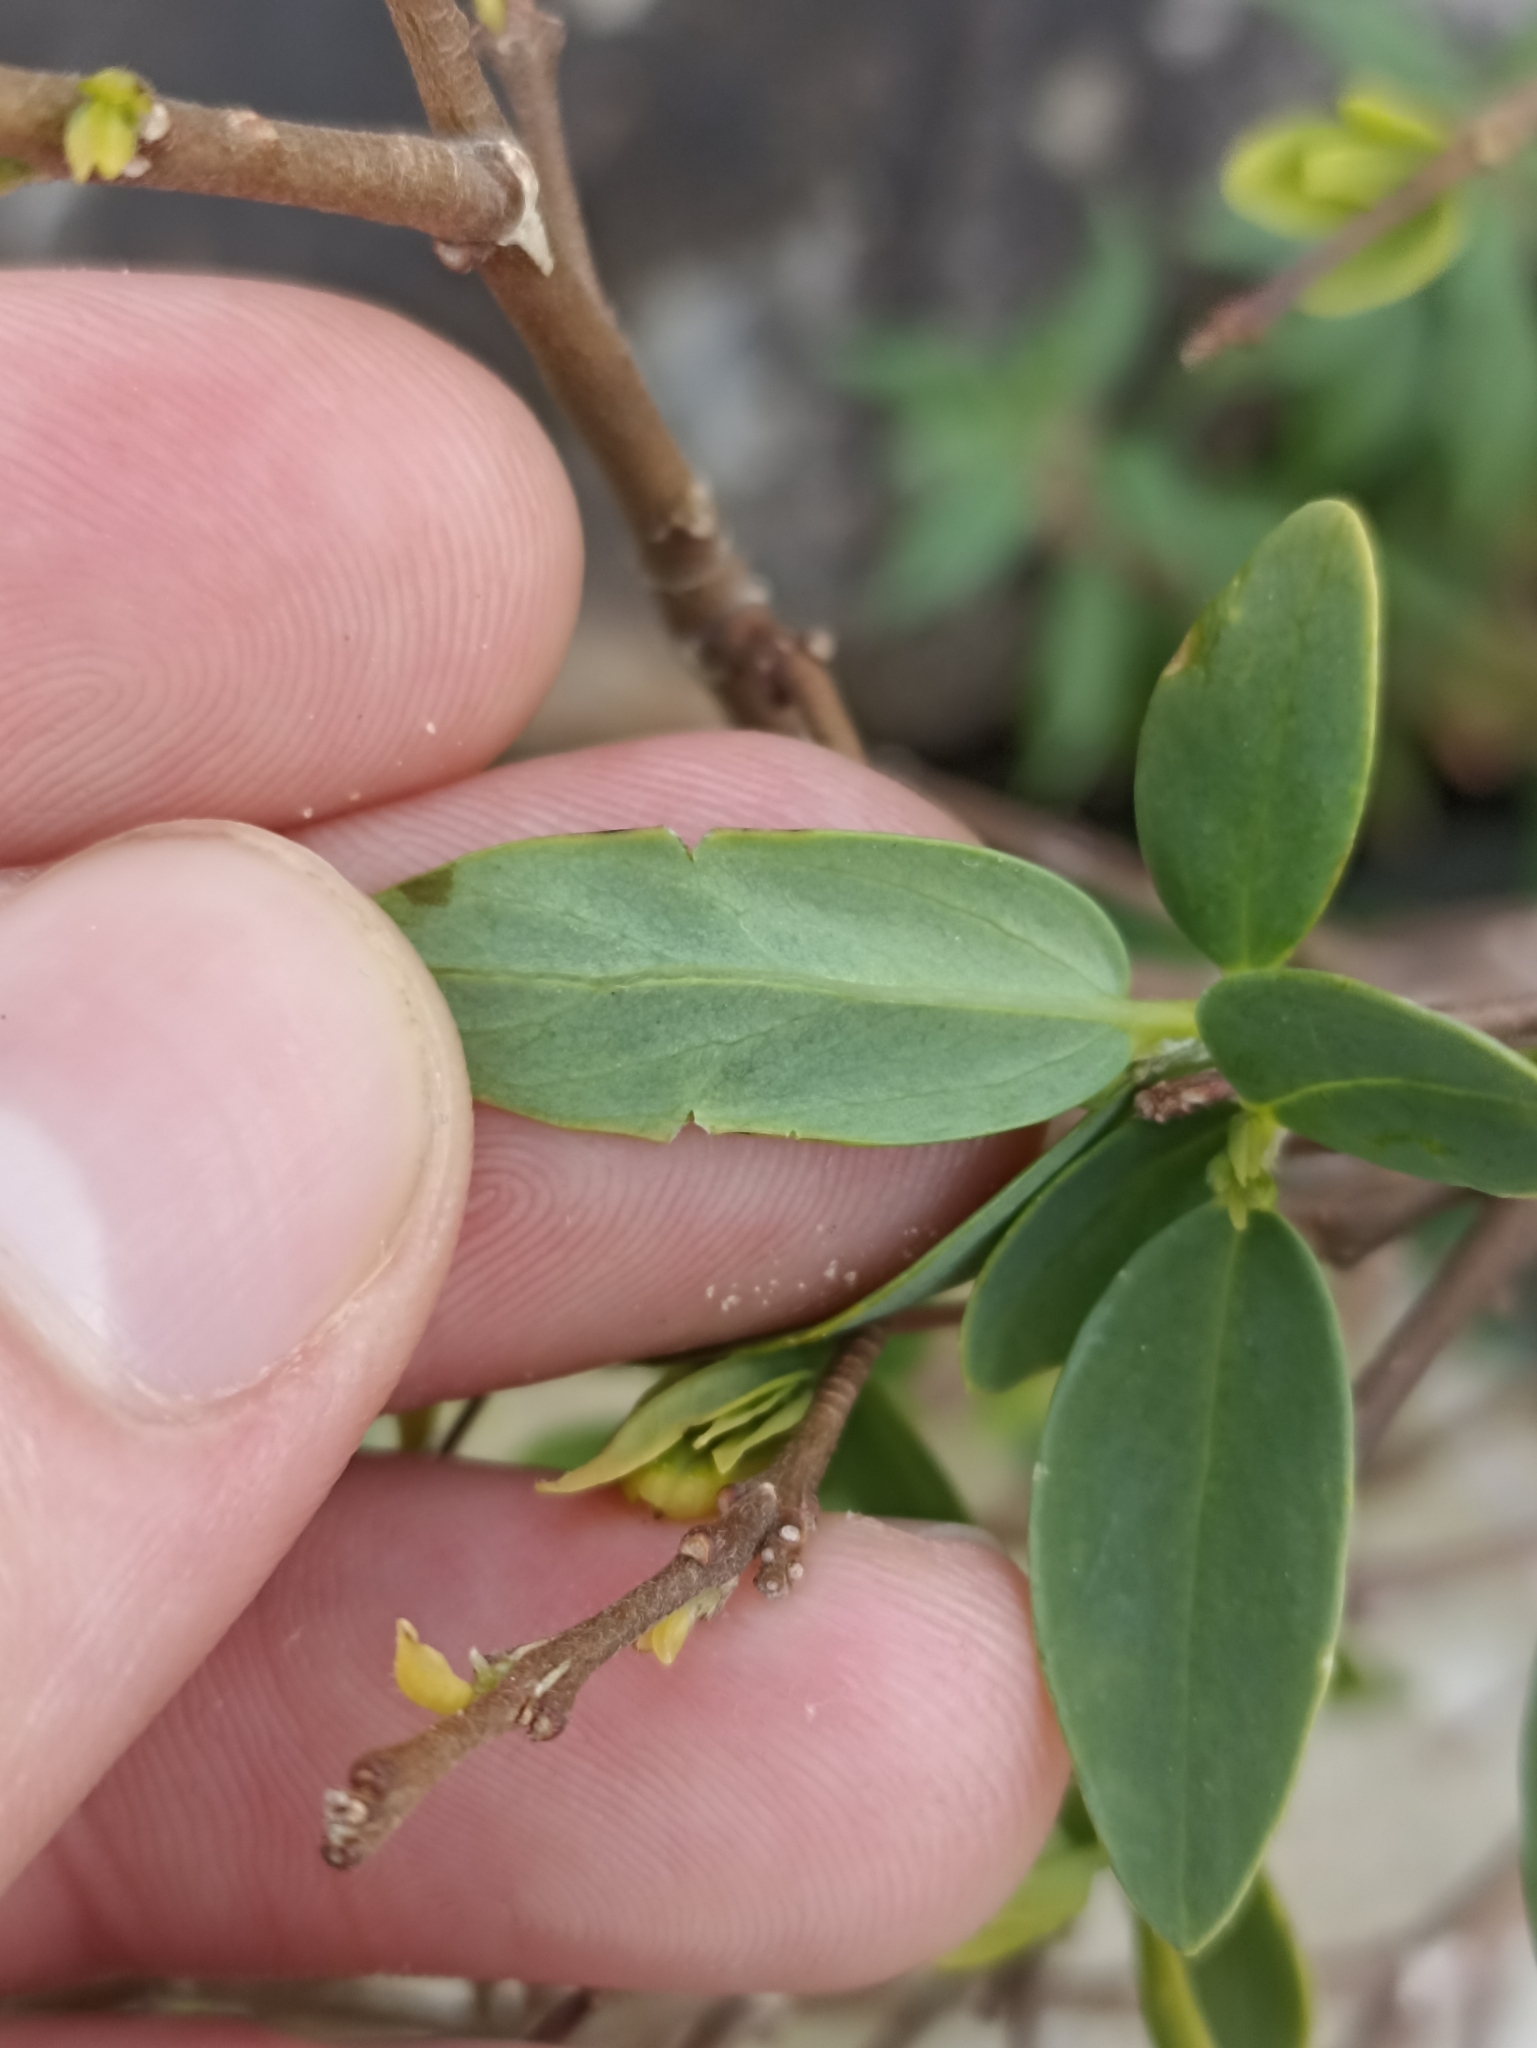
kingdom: Plantae
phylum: Tracheophyta
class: Magnoliopsida
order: Malvales
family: Thymelaeaceae
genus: Wikstroemia
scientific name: Wikstroemia indica
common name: Tiebush
